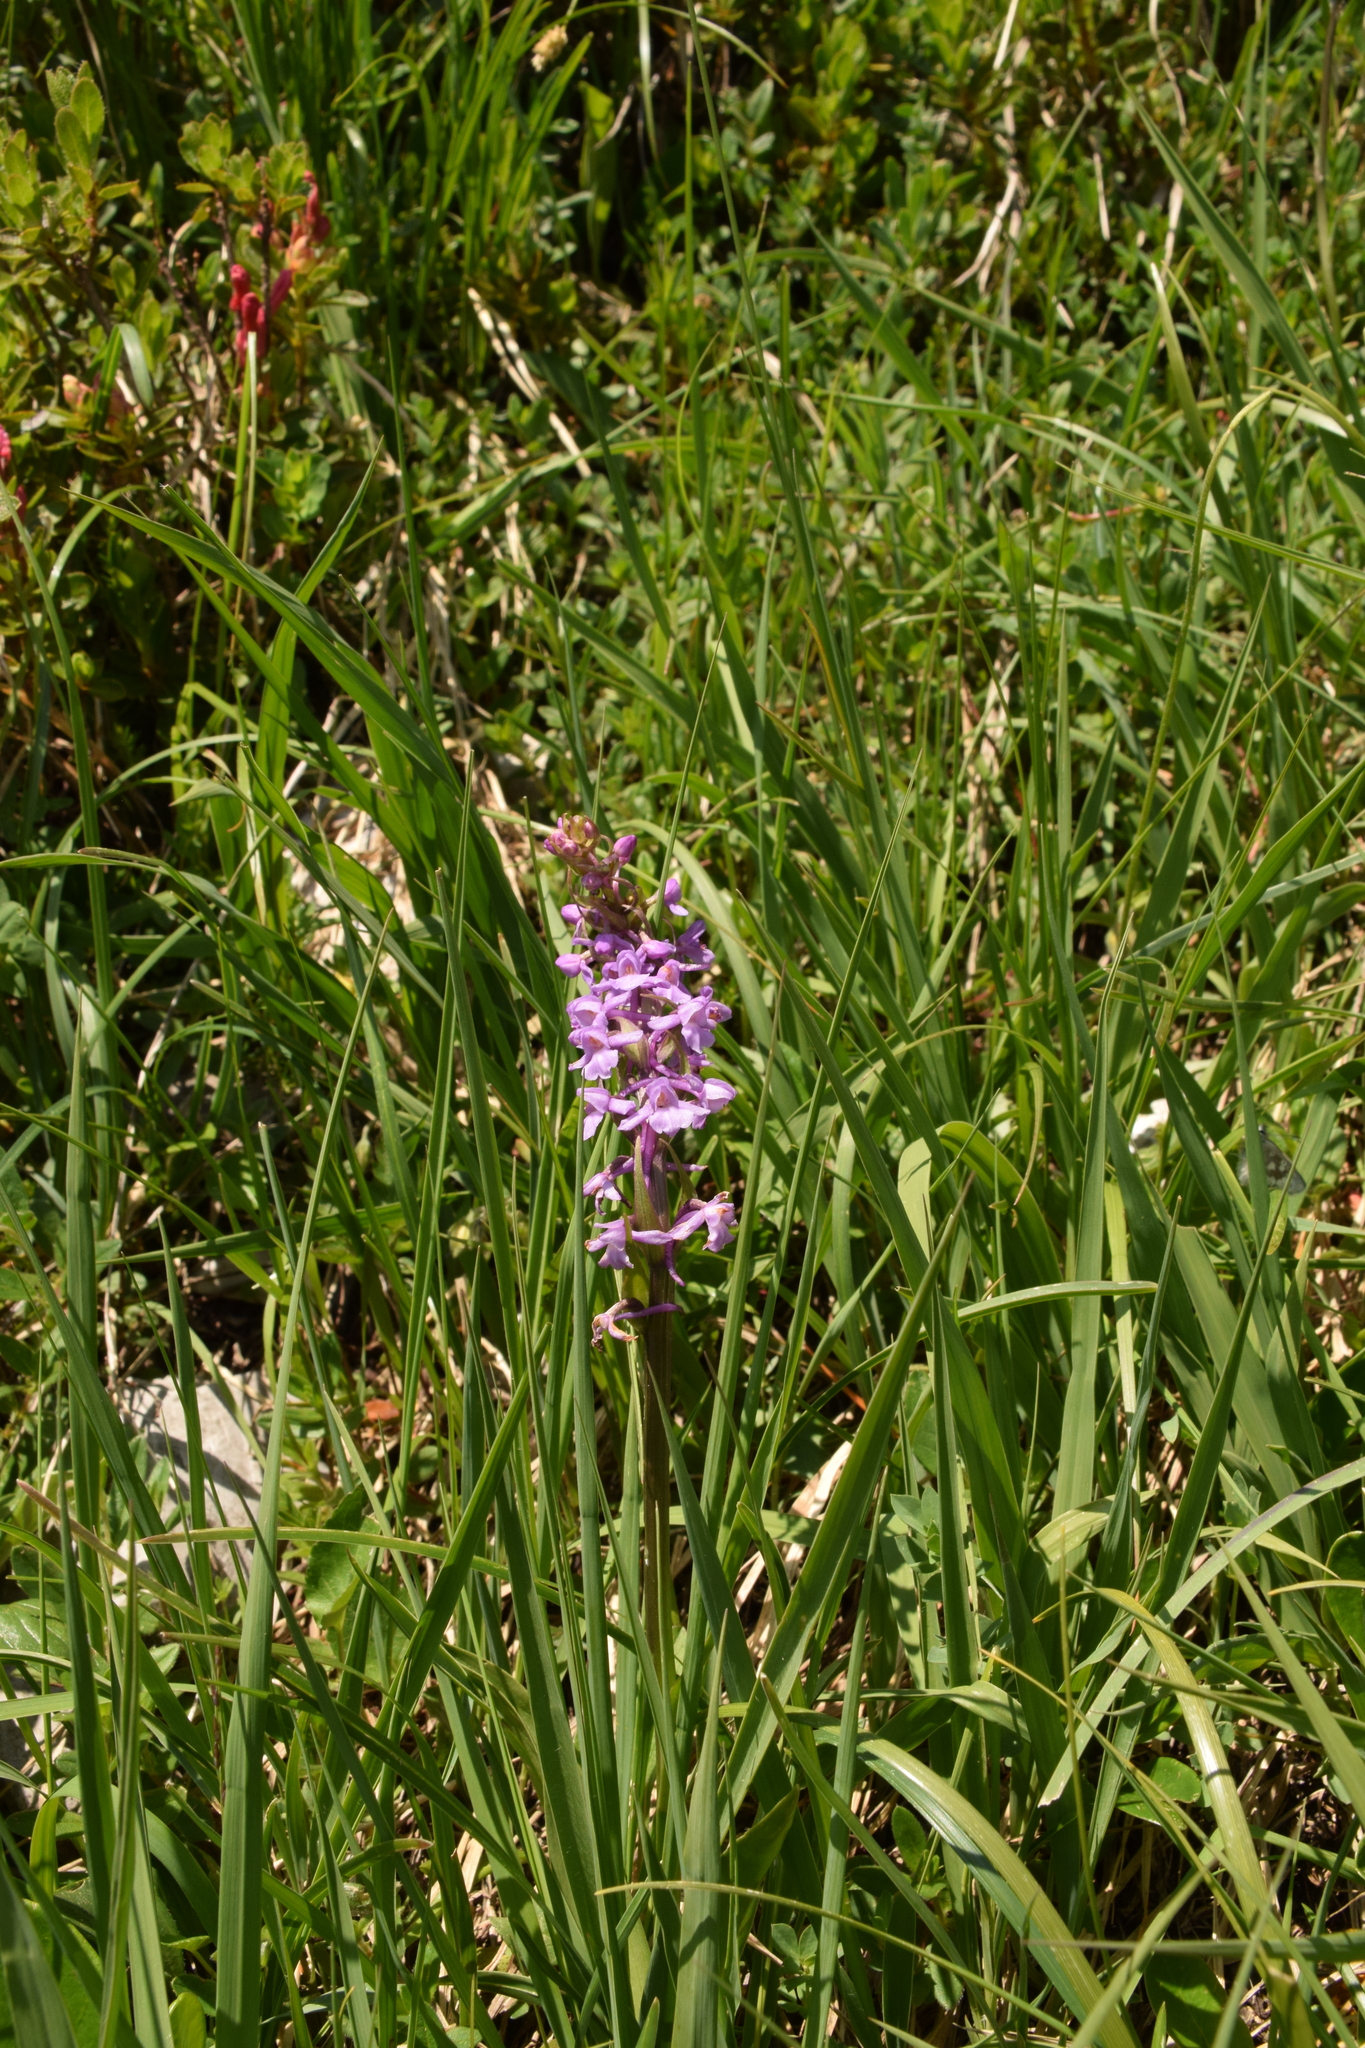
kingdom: Plantae
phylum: Tracheophyta
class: Liliopsida
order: Asparagales
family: Orchidaceae
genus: Gymnadenia
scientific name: Gymnadenia conopsea
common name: Fragrant orchid
